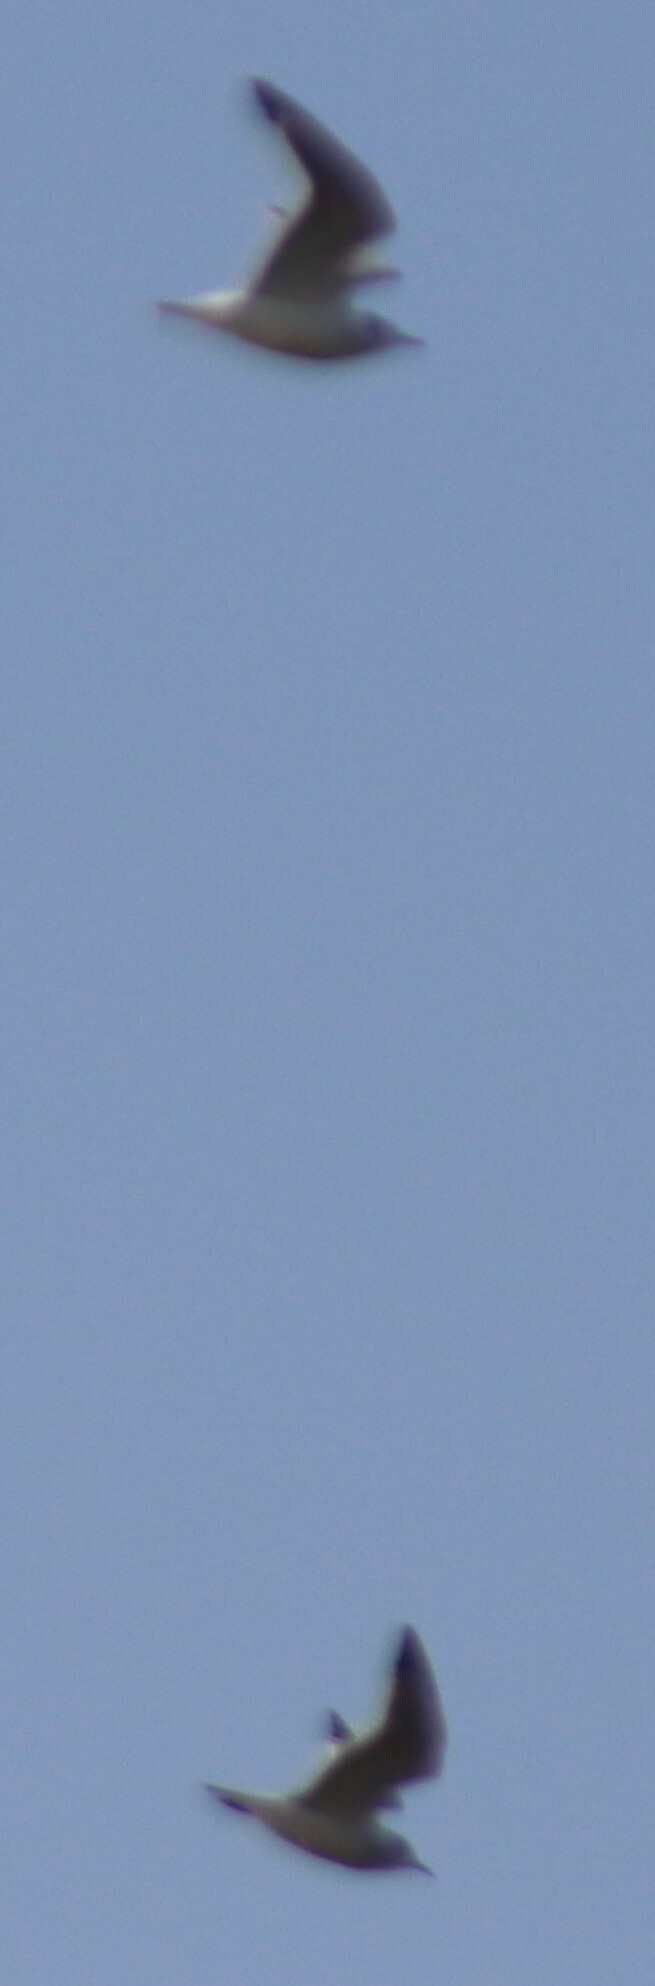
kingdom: Animalia
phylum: Chordata
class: Aves
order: Charadriiformes
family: Laridae
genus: Leucophaeus
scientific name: Leucophaeus pipixcan
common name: Franklin's gull
